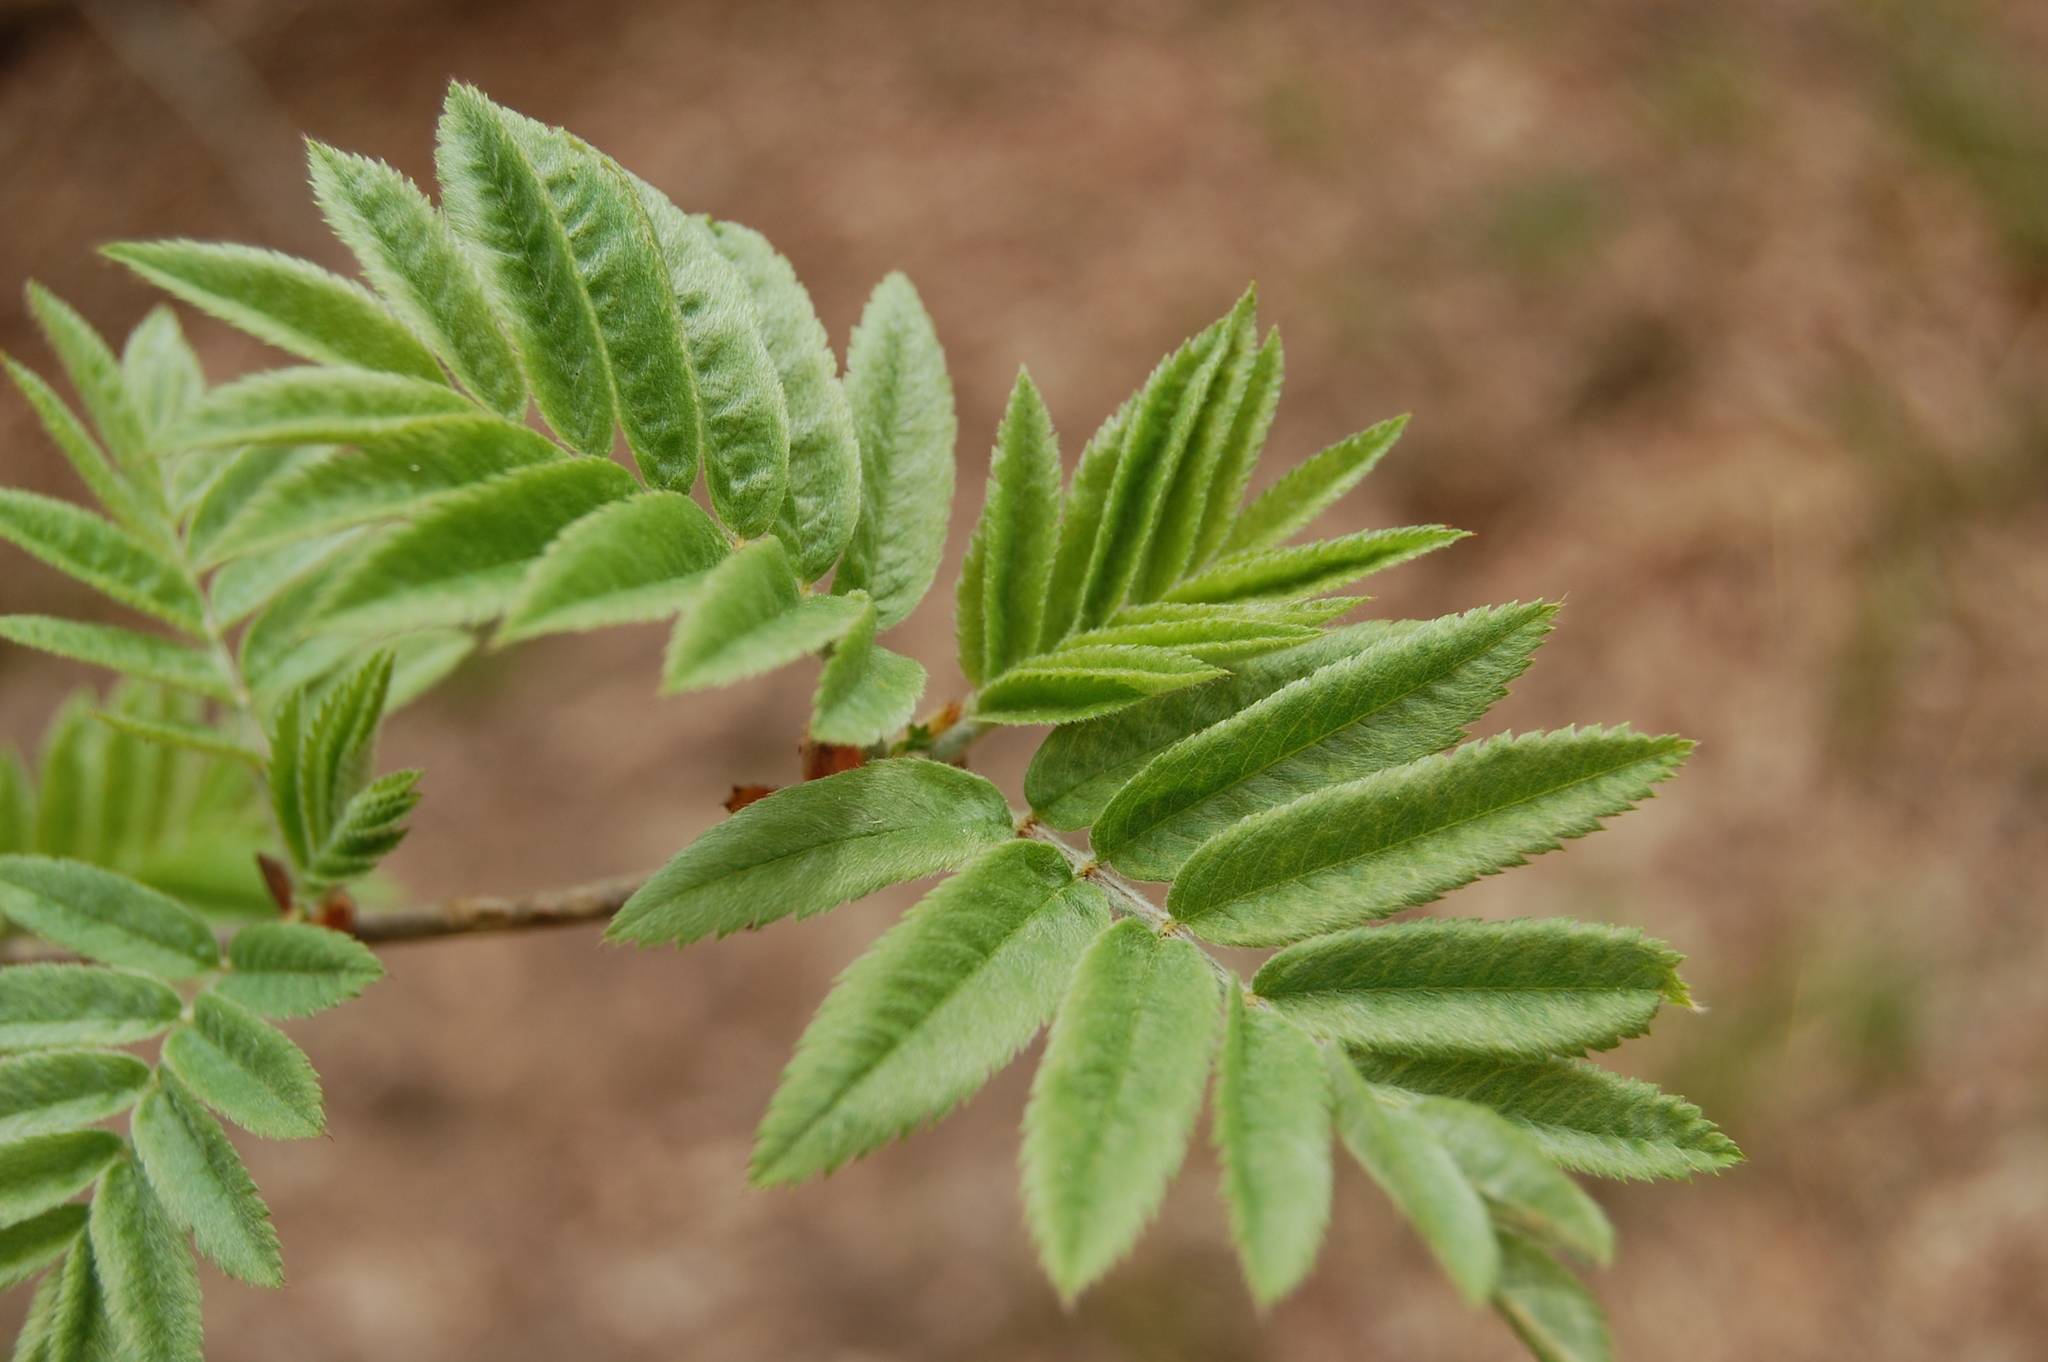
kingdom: Plantae
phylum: Tracheophyta
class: Magnoliopsida
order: Rosales
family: Rosaceae
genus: Sorbus
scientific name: Sorbus aucuparia
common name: Rowan
